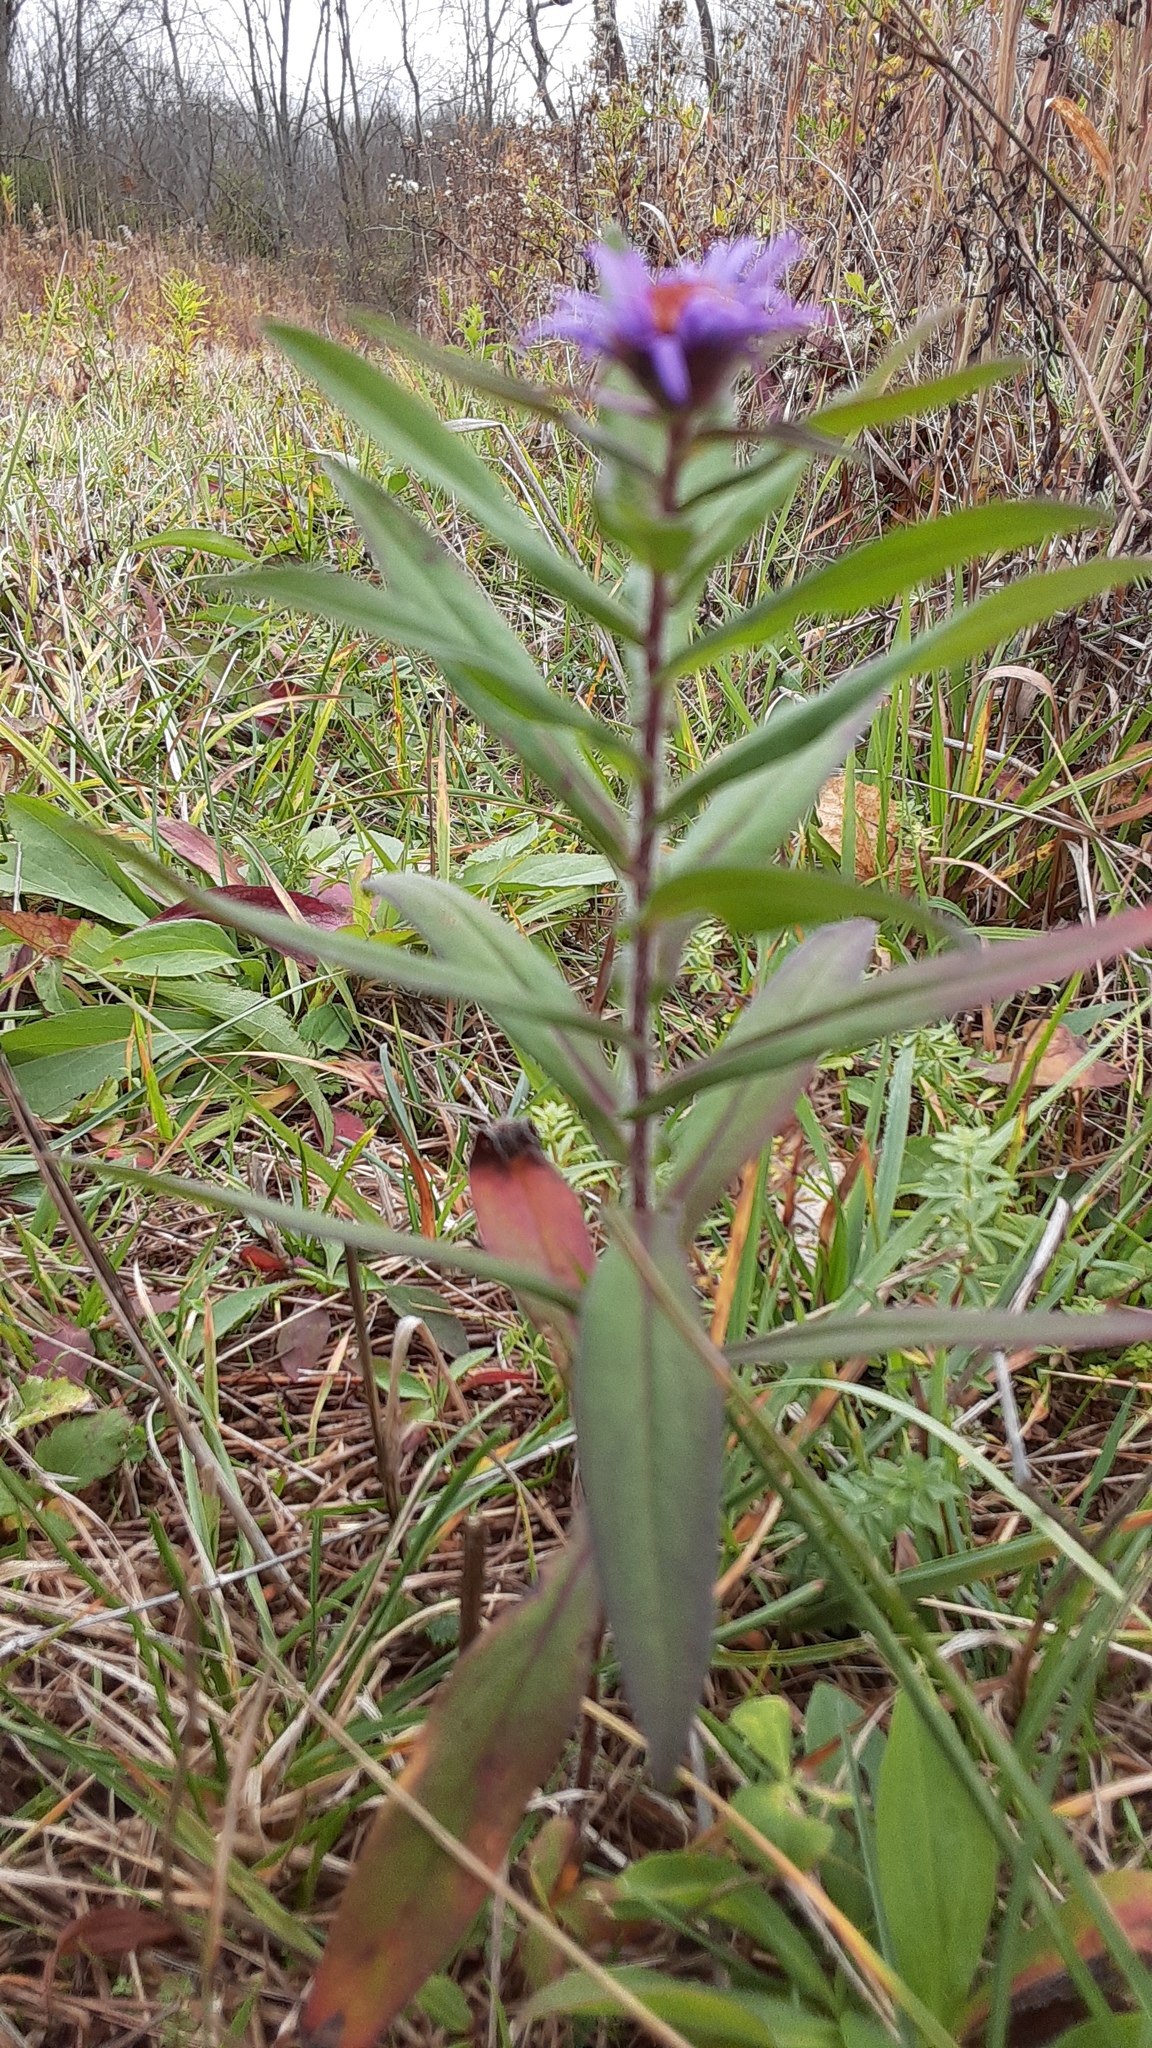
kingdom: Plantae
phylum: Tracheophyta
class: Magnoliopsida
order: Asterales
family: Asteraceae
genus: Symphyotrichum
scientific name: Symphyotrichum novae-angliae
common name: Michaelmas daisy
